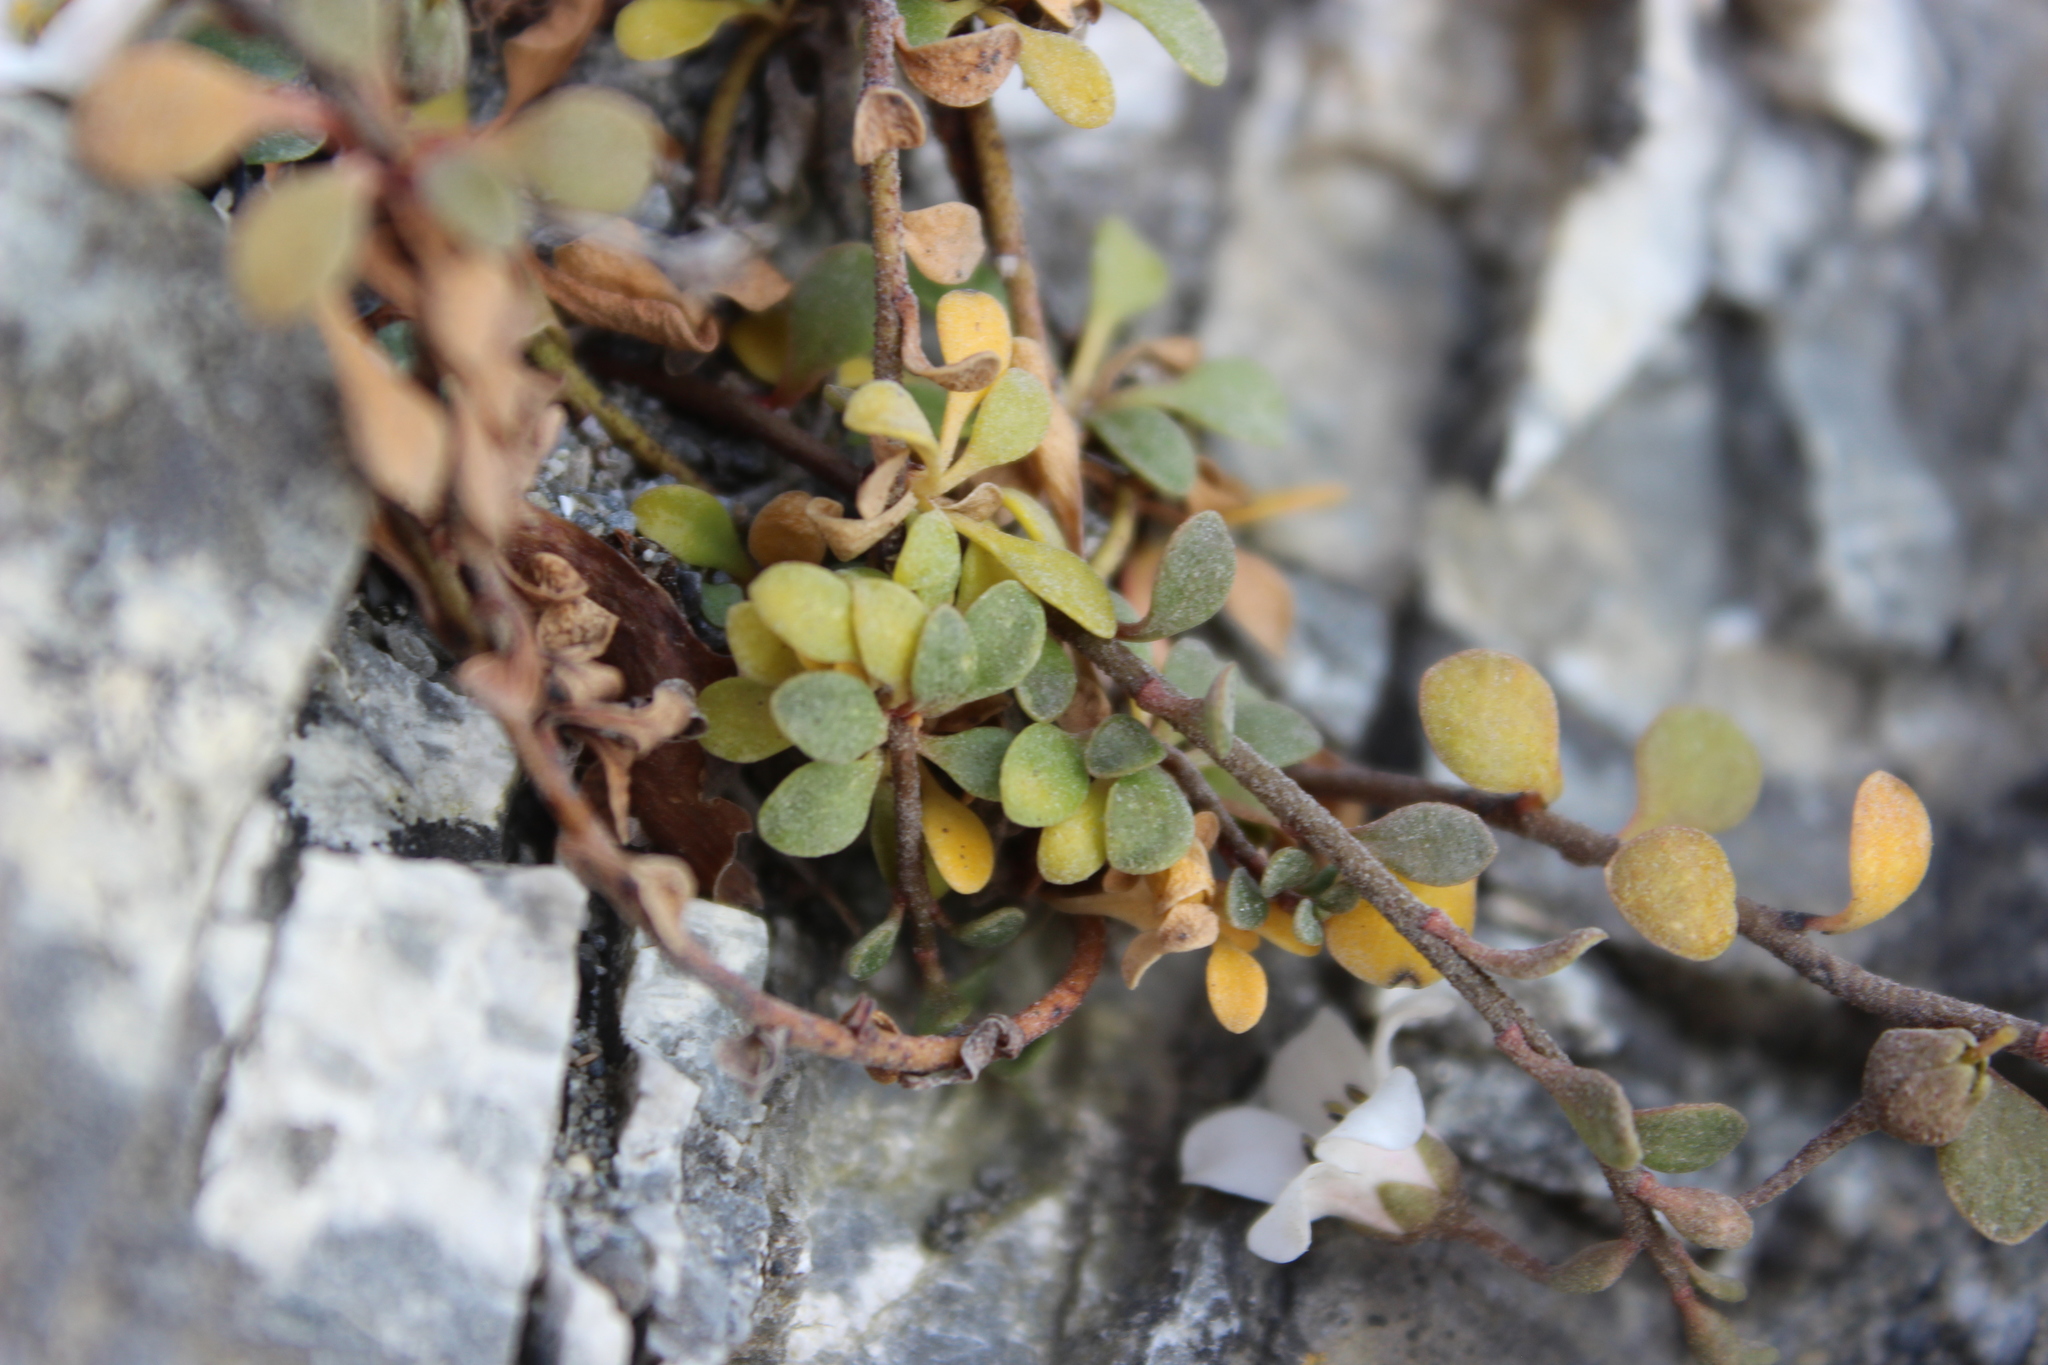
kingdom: Plantae
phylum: Tracheophyta
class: Magnoliopsida
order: Ericales
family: Primulaceae
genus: Samolus
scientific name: Samolus repens
